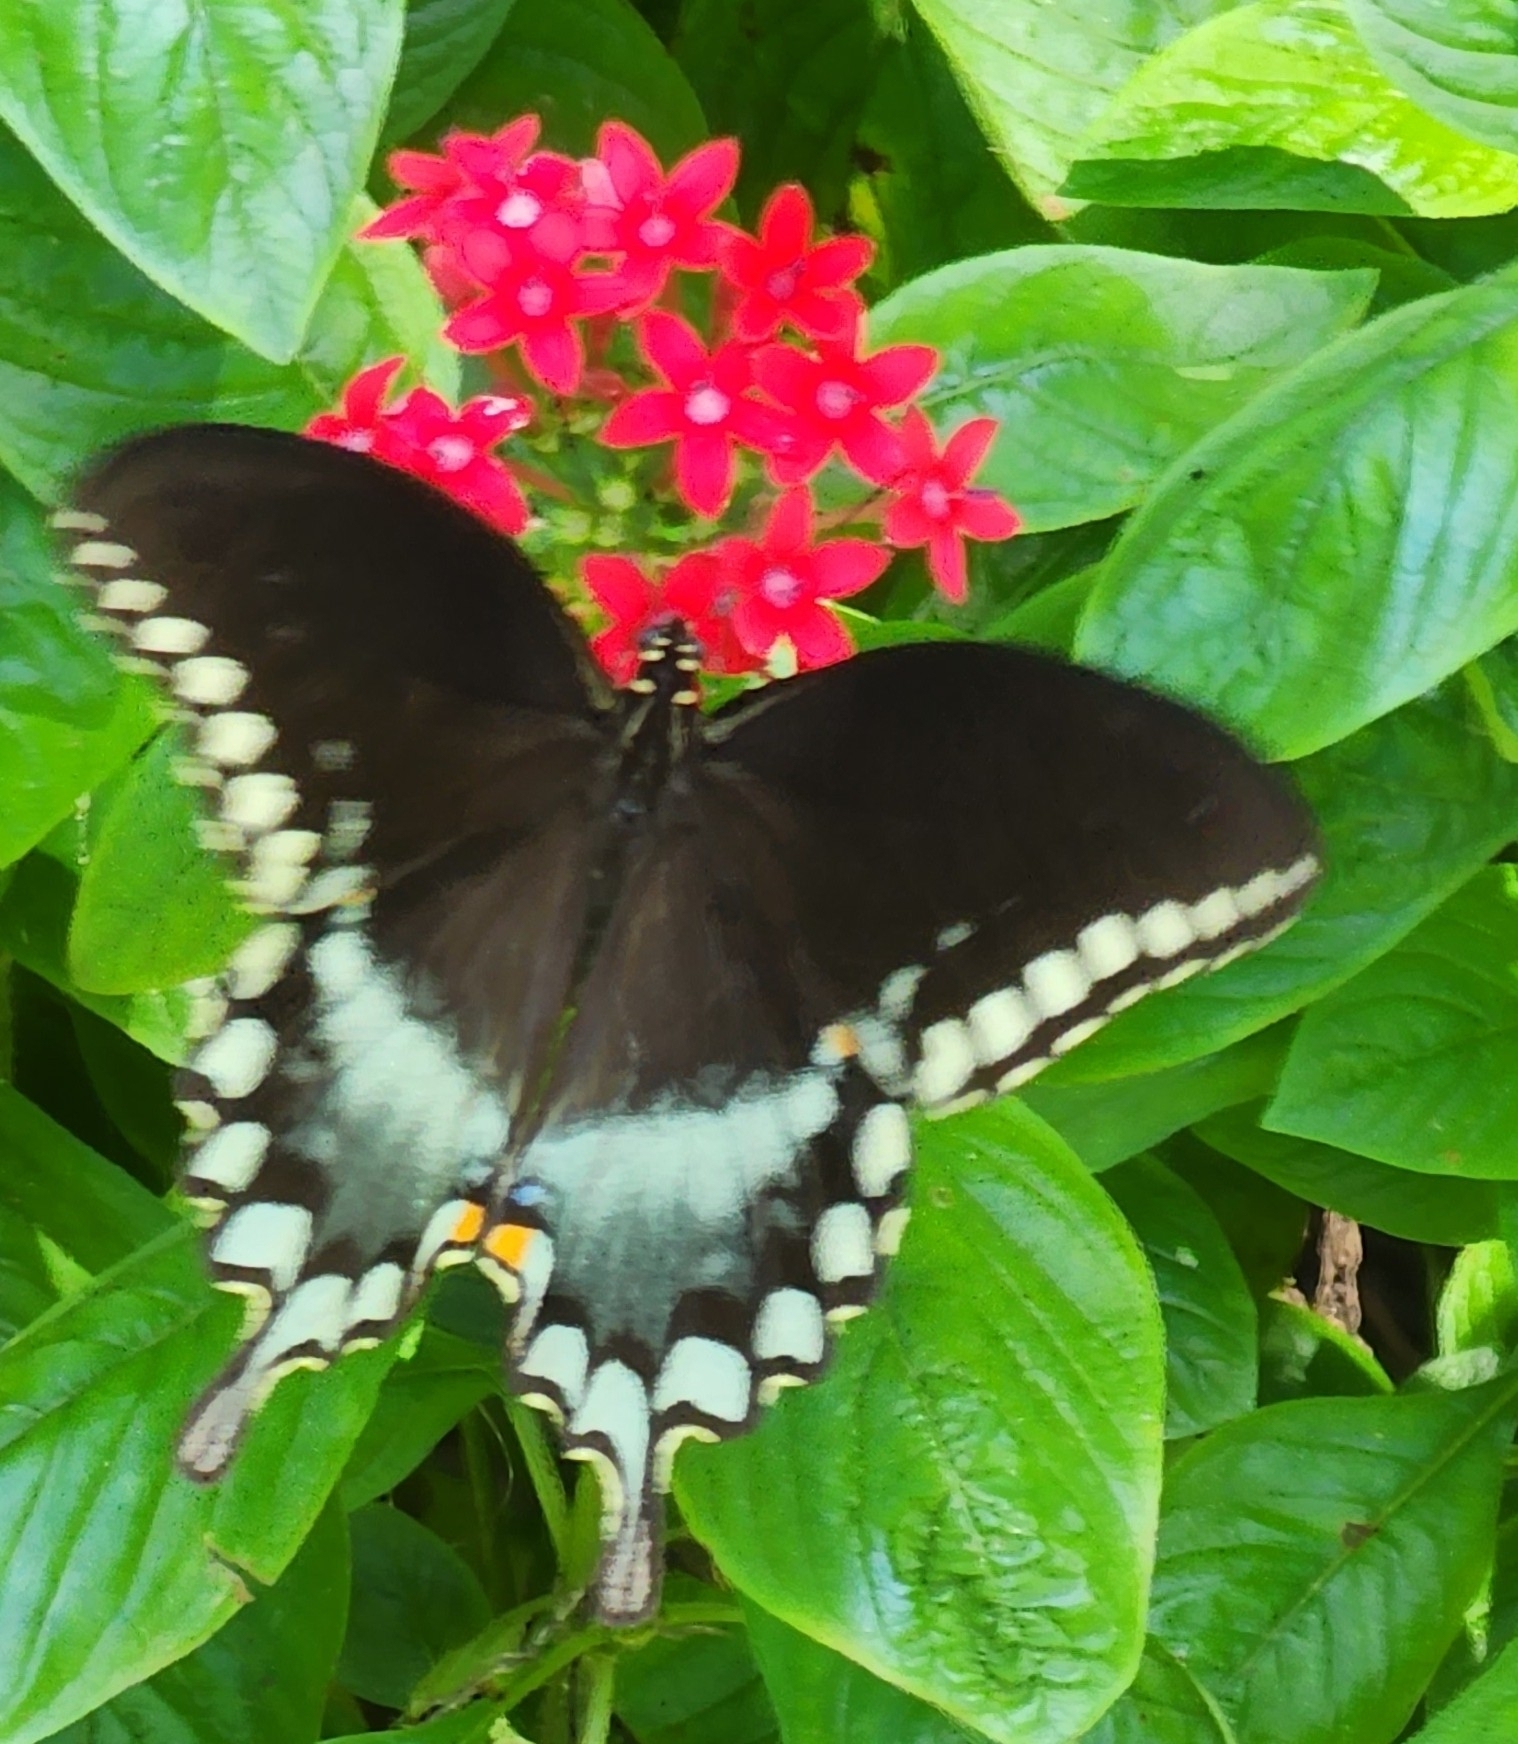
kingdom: Animalia
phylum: Arthropoda
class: Insecta
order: Lepidoptera
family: Papilionidae
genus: Papilio
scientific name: Papilio troilus
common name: Spicebush swallowtail
